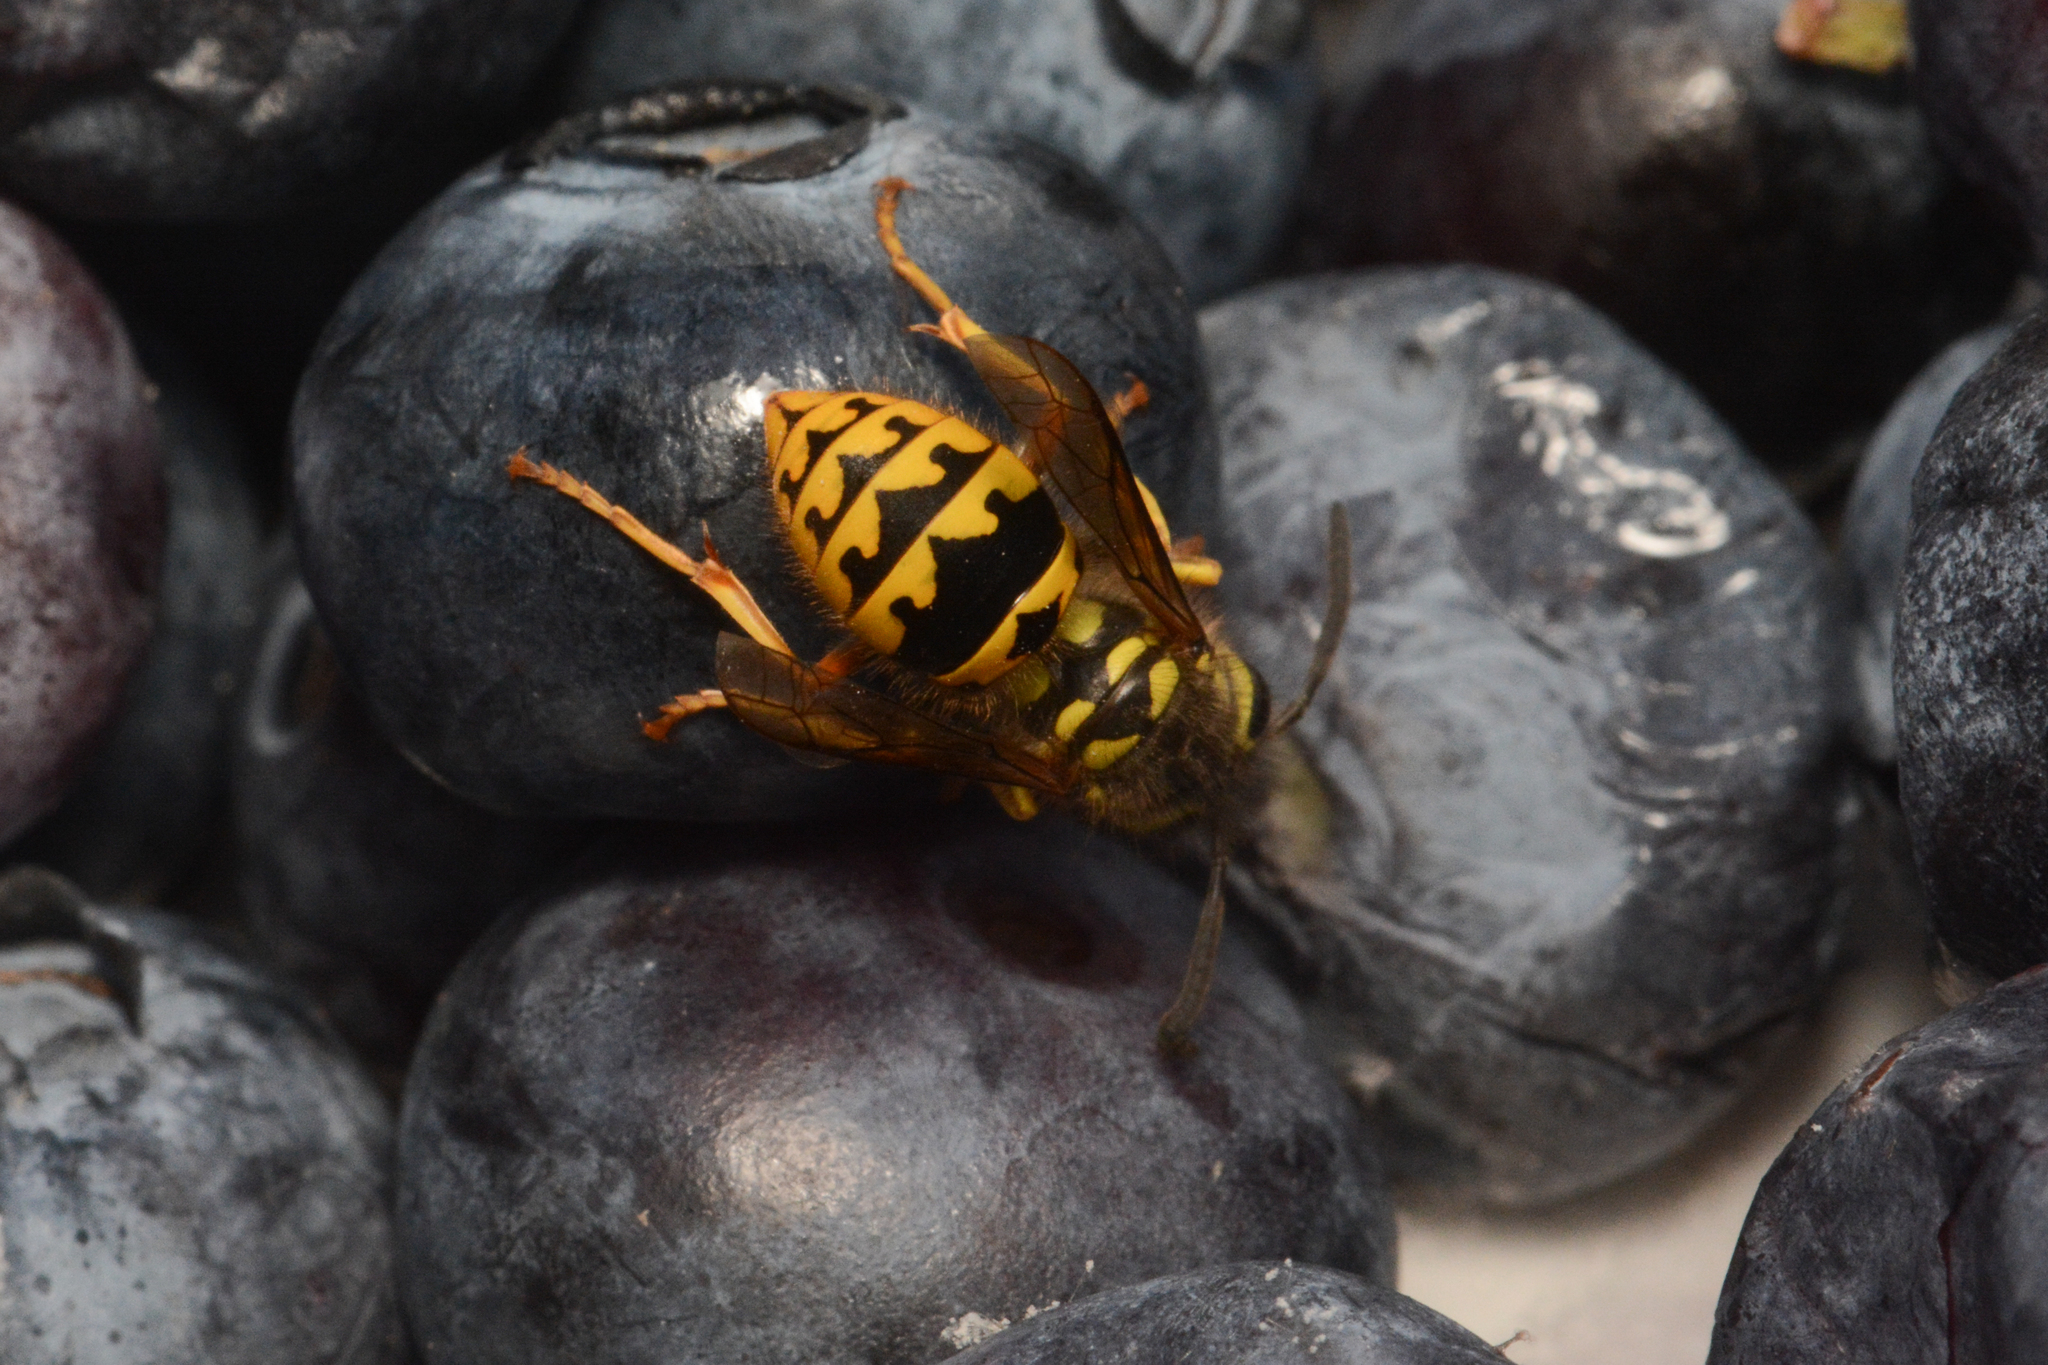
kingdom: Animalia
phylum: Arthropoda
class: Insecta
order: Hymenoptera
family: Vespidae
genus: Vespula
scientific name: Vespula pensylvanica
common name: Western yellowjacket
